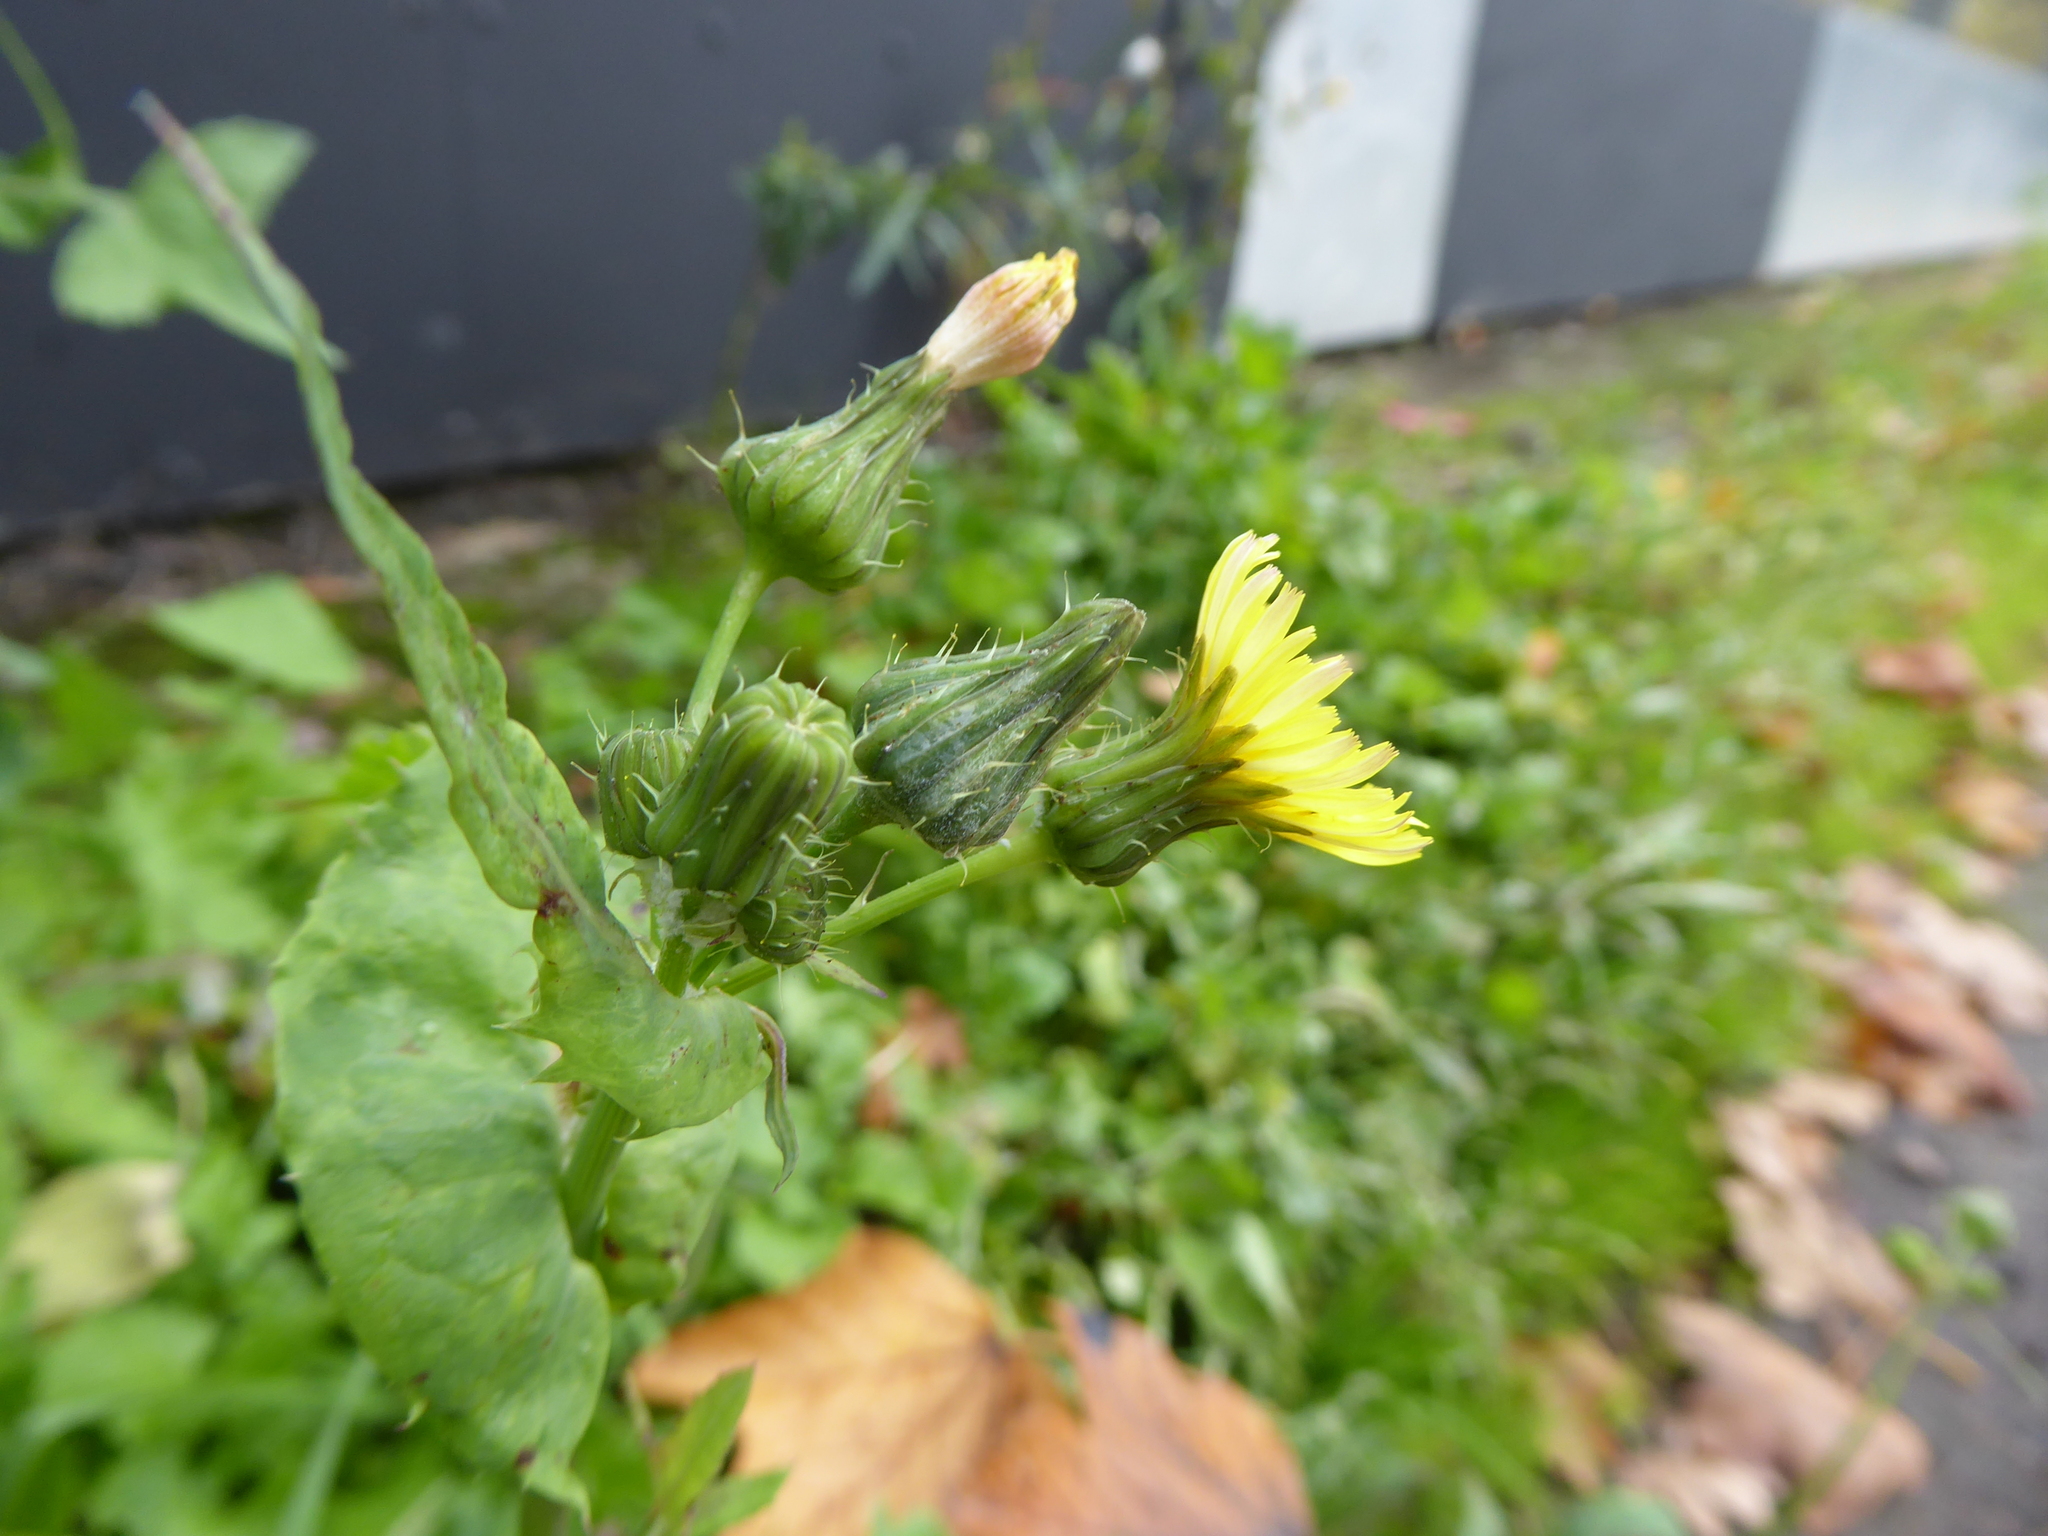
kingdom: Plantae
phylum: Tracheophyta
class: Magnoliopsida
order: Asterales
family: Asteraceae
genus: Sonchus
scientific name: Sonchus oleraceus
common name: Common sowthistle
